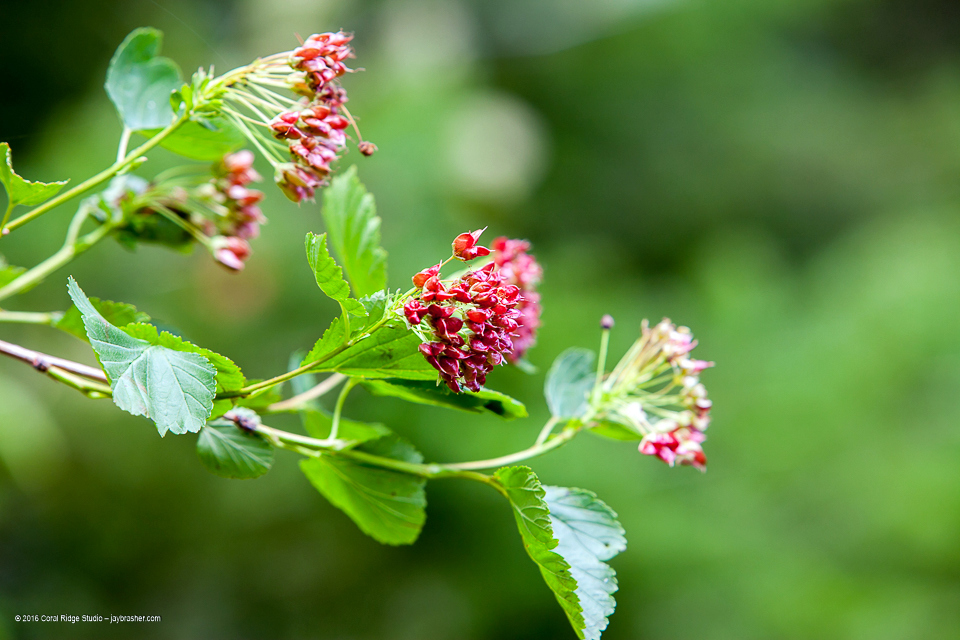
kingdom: Plantae
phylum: Tracheophyta
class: Magnoliopsida
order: Rosales
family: Rosaceae
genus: Physocarpus
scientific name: Physocarpus opulifolius
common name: Ninebark
